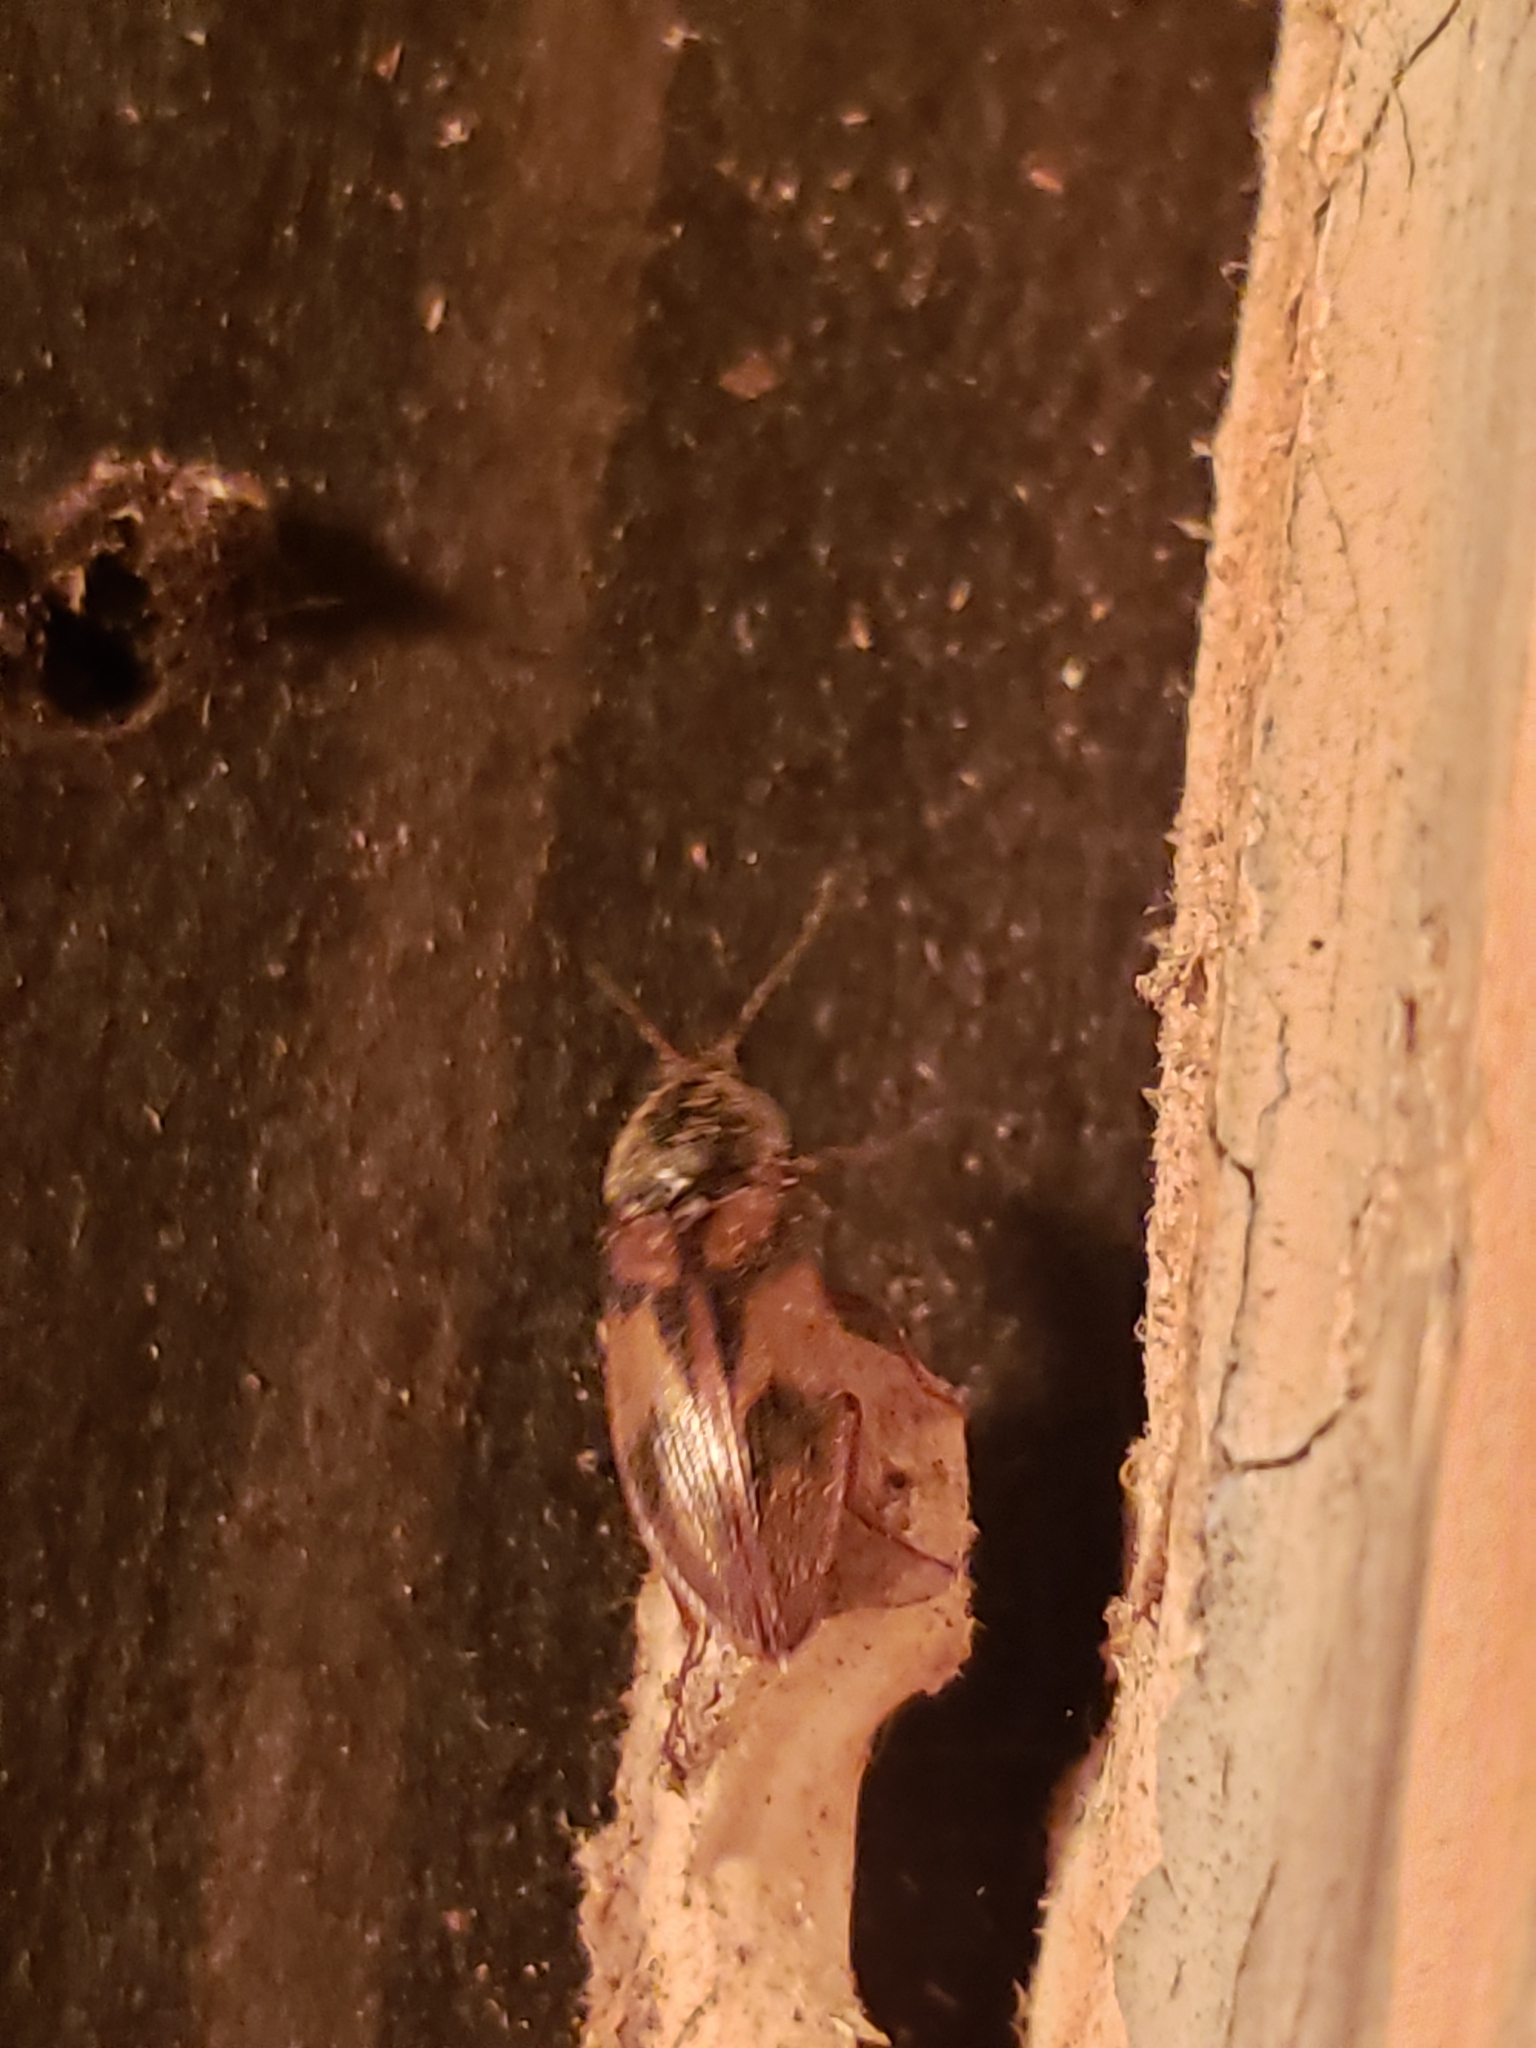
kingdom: Animalia
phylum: Arthropoda
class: Insecta
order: Coleoptera
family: Elateridae
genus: Stropenron
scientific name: Stropenron hieroglyphica
